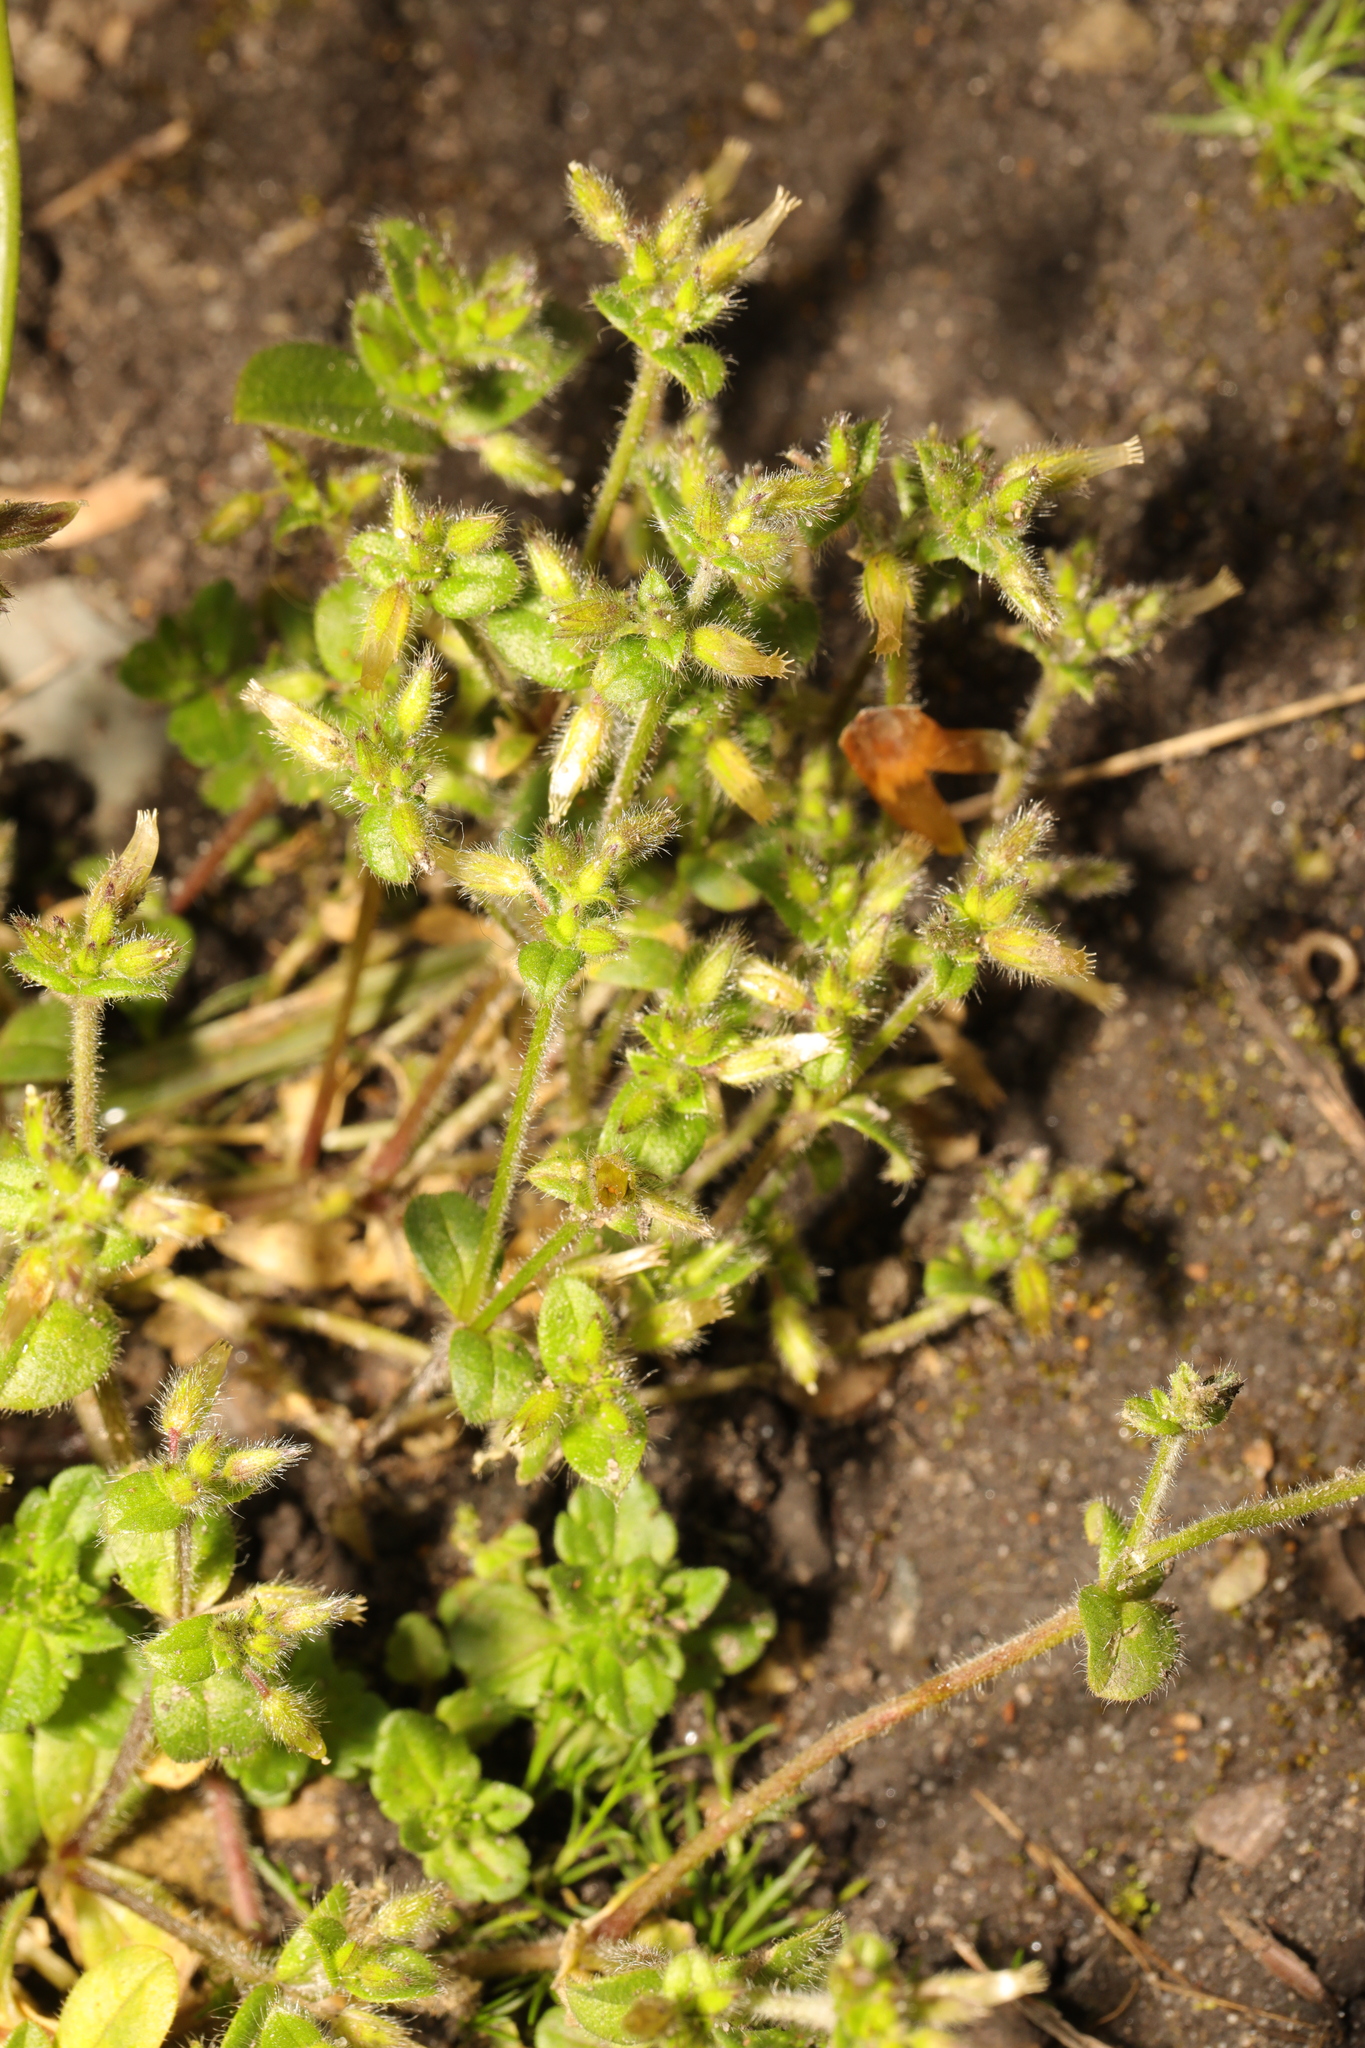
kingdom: Plantae
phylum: Tracheophyta
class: Magnoliopsida
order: Caryophyllales
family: Caryophyllaceae
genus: Cerastium
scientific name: Cerastium glomeratum
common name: Sticky chickweed
